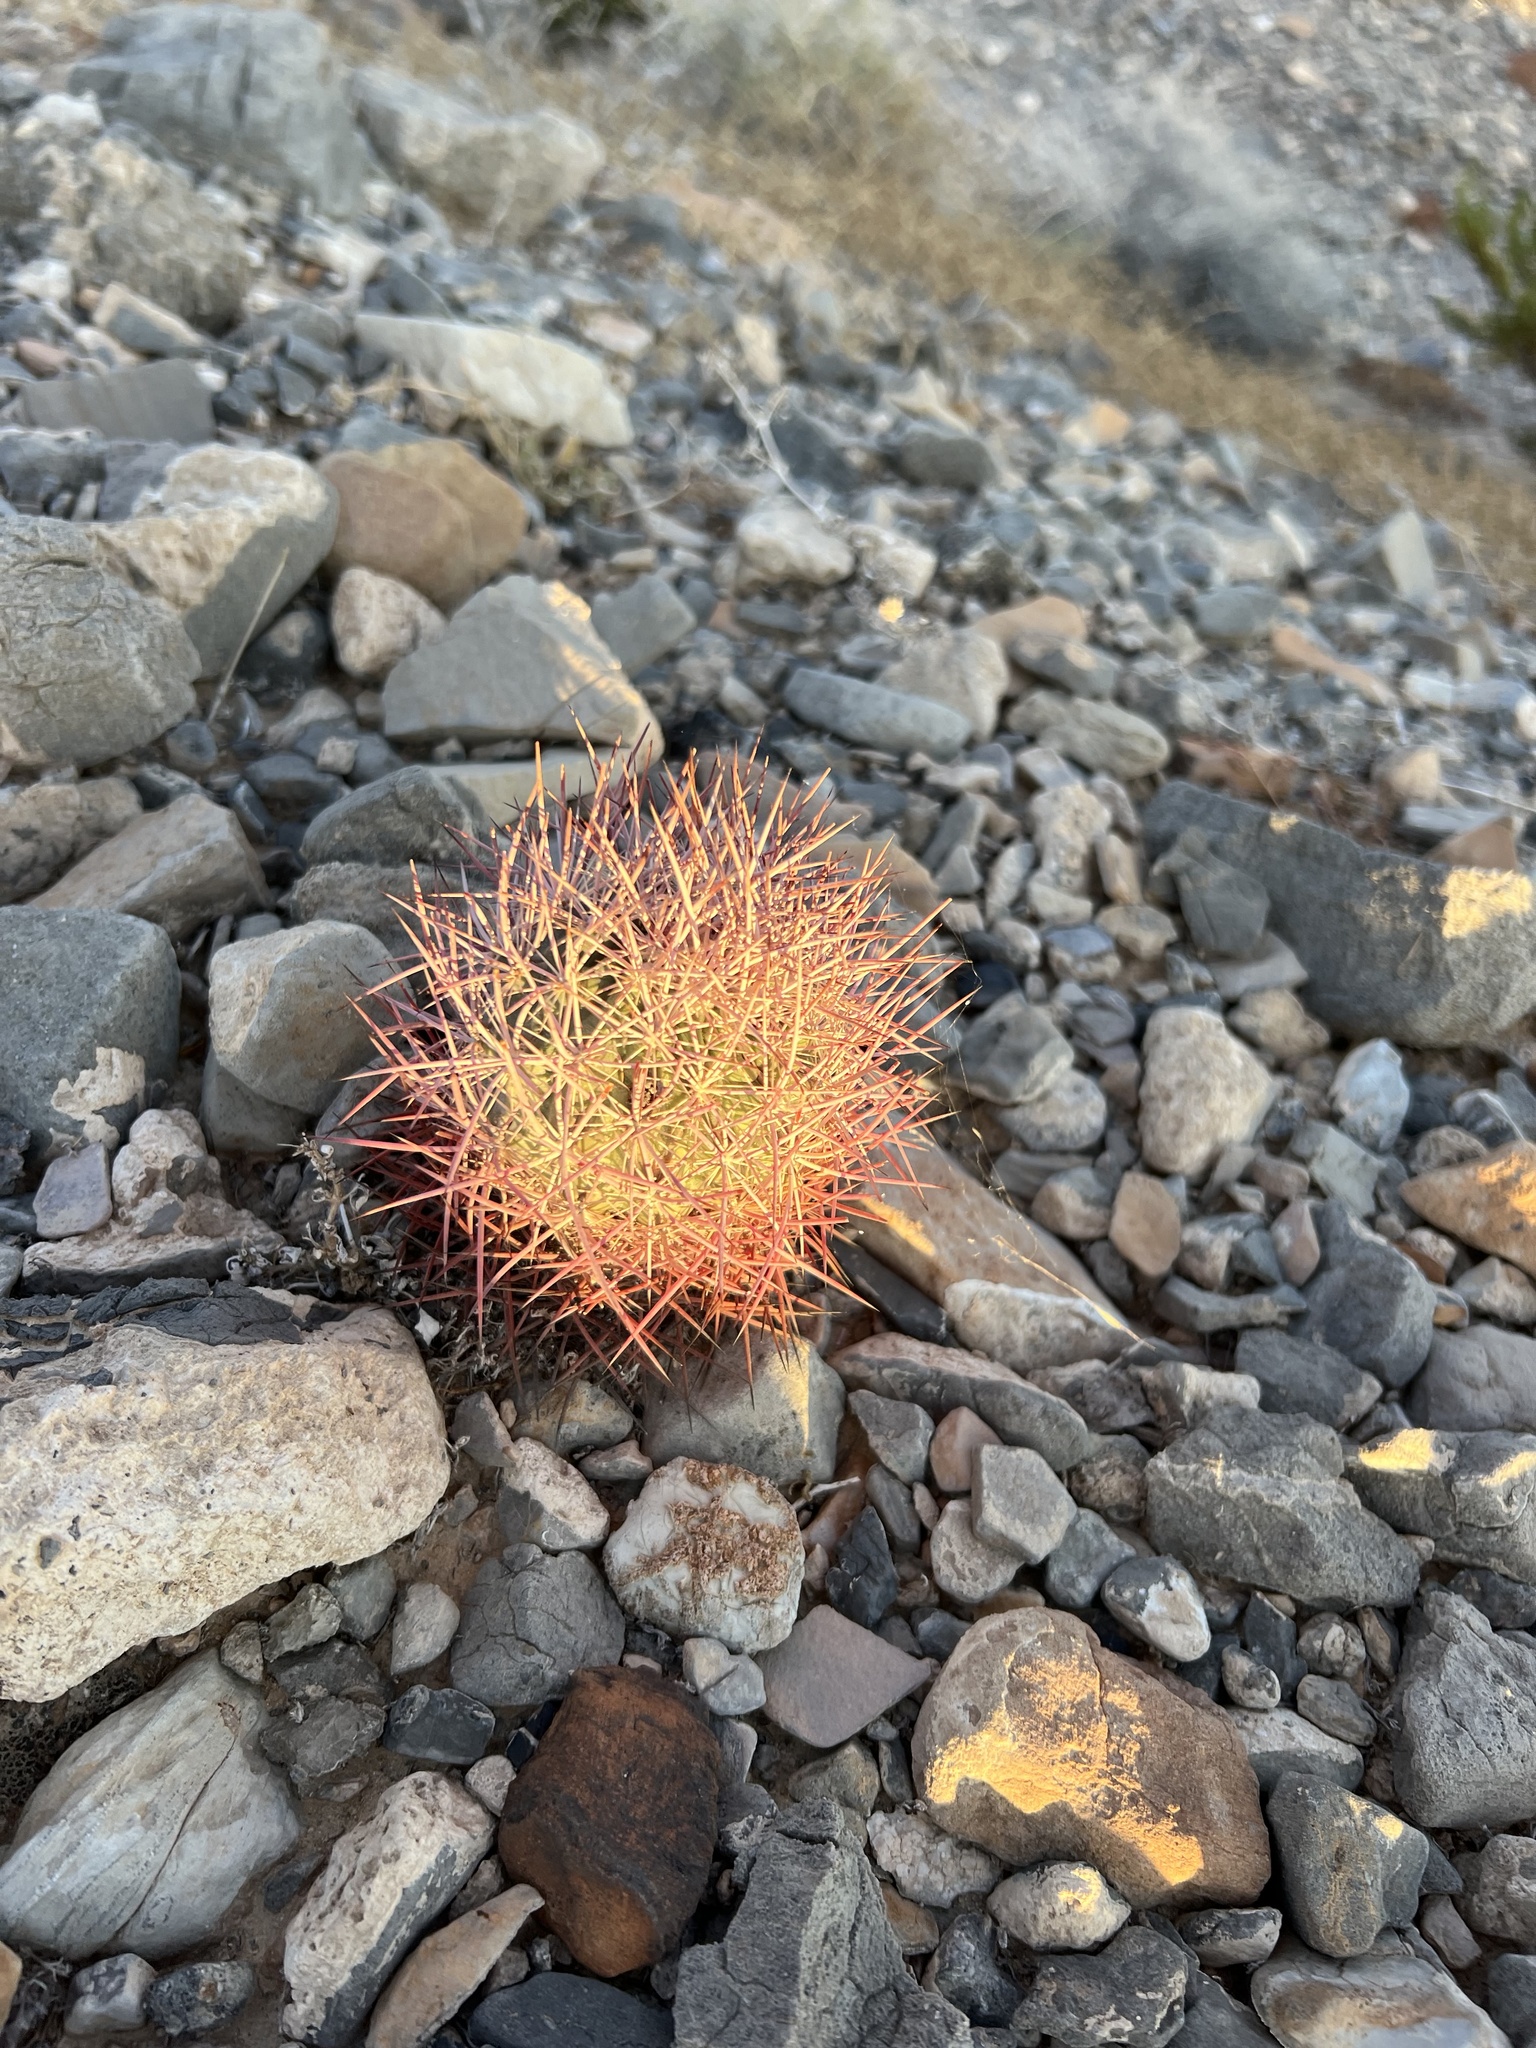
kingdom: Plantae
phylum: Tracheophyta
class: Magnoliopsida
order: Caryophyllales
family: Cactaceae
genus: Sclerocactus
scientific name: Sclerocactus johnsonii
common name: Eight-spine fishhook cactus
